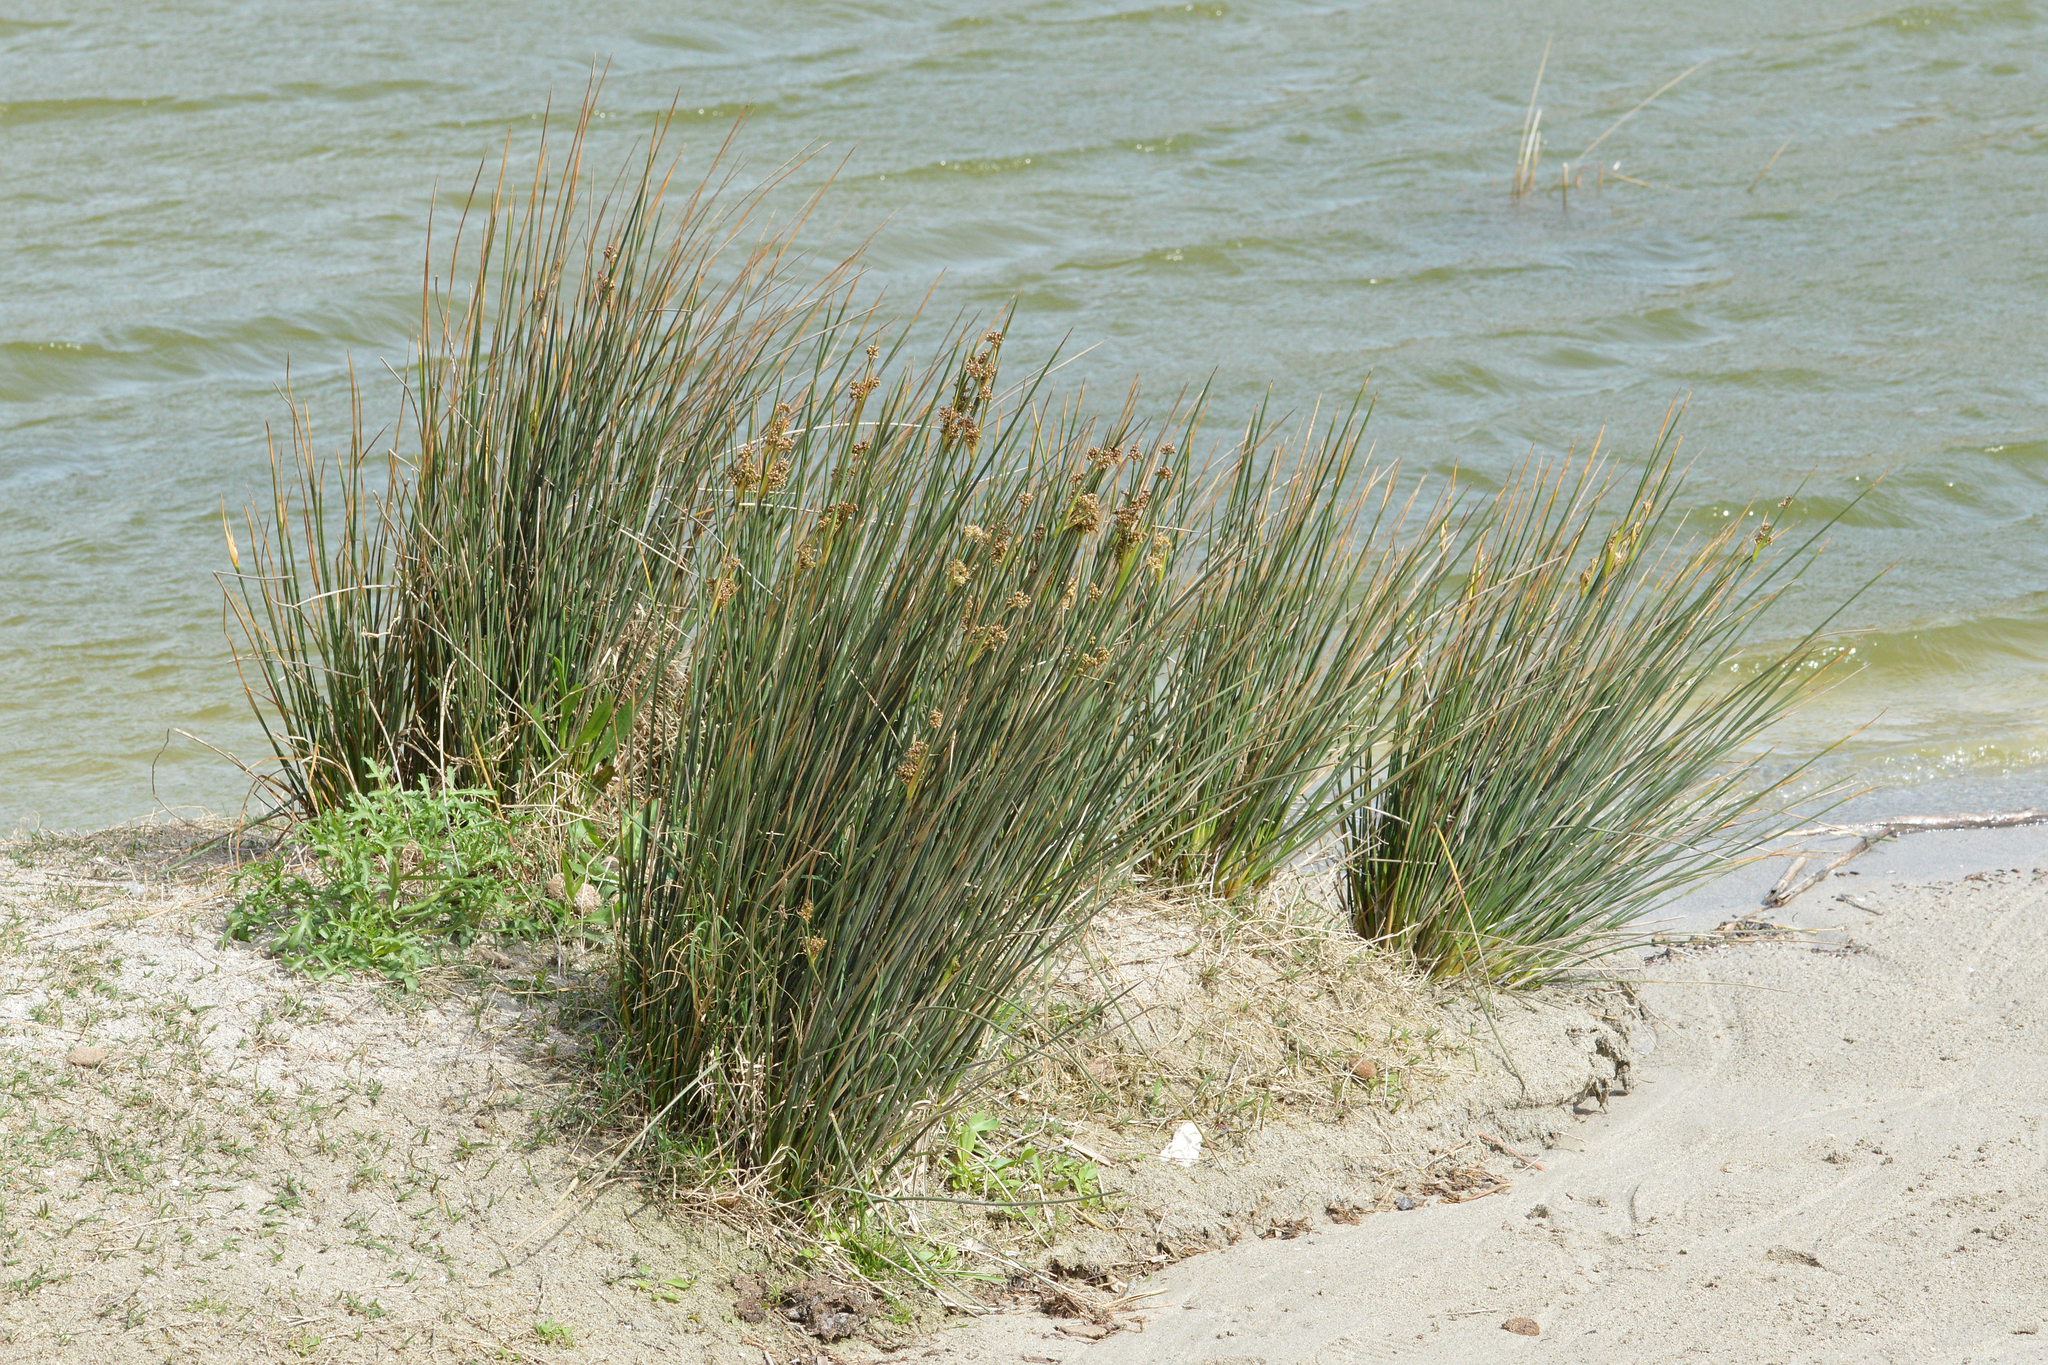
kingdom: Plantae
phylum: Tracheophyta
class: Liliopsida
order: Poales
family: Juncaceae
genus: Juncus
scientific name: Juncus acutus
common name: Sharp rush
